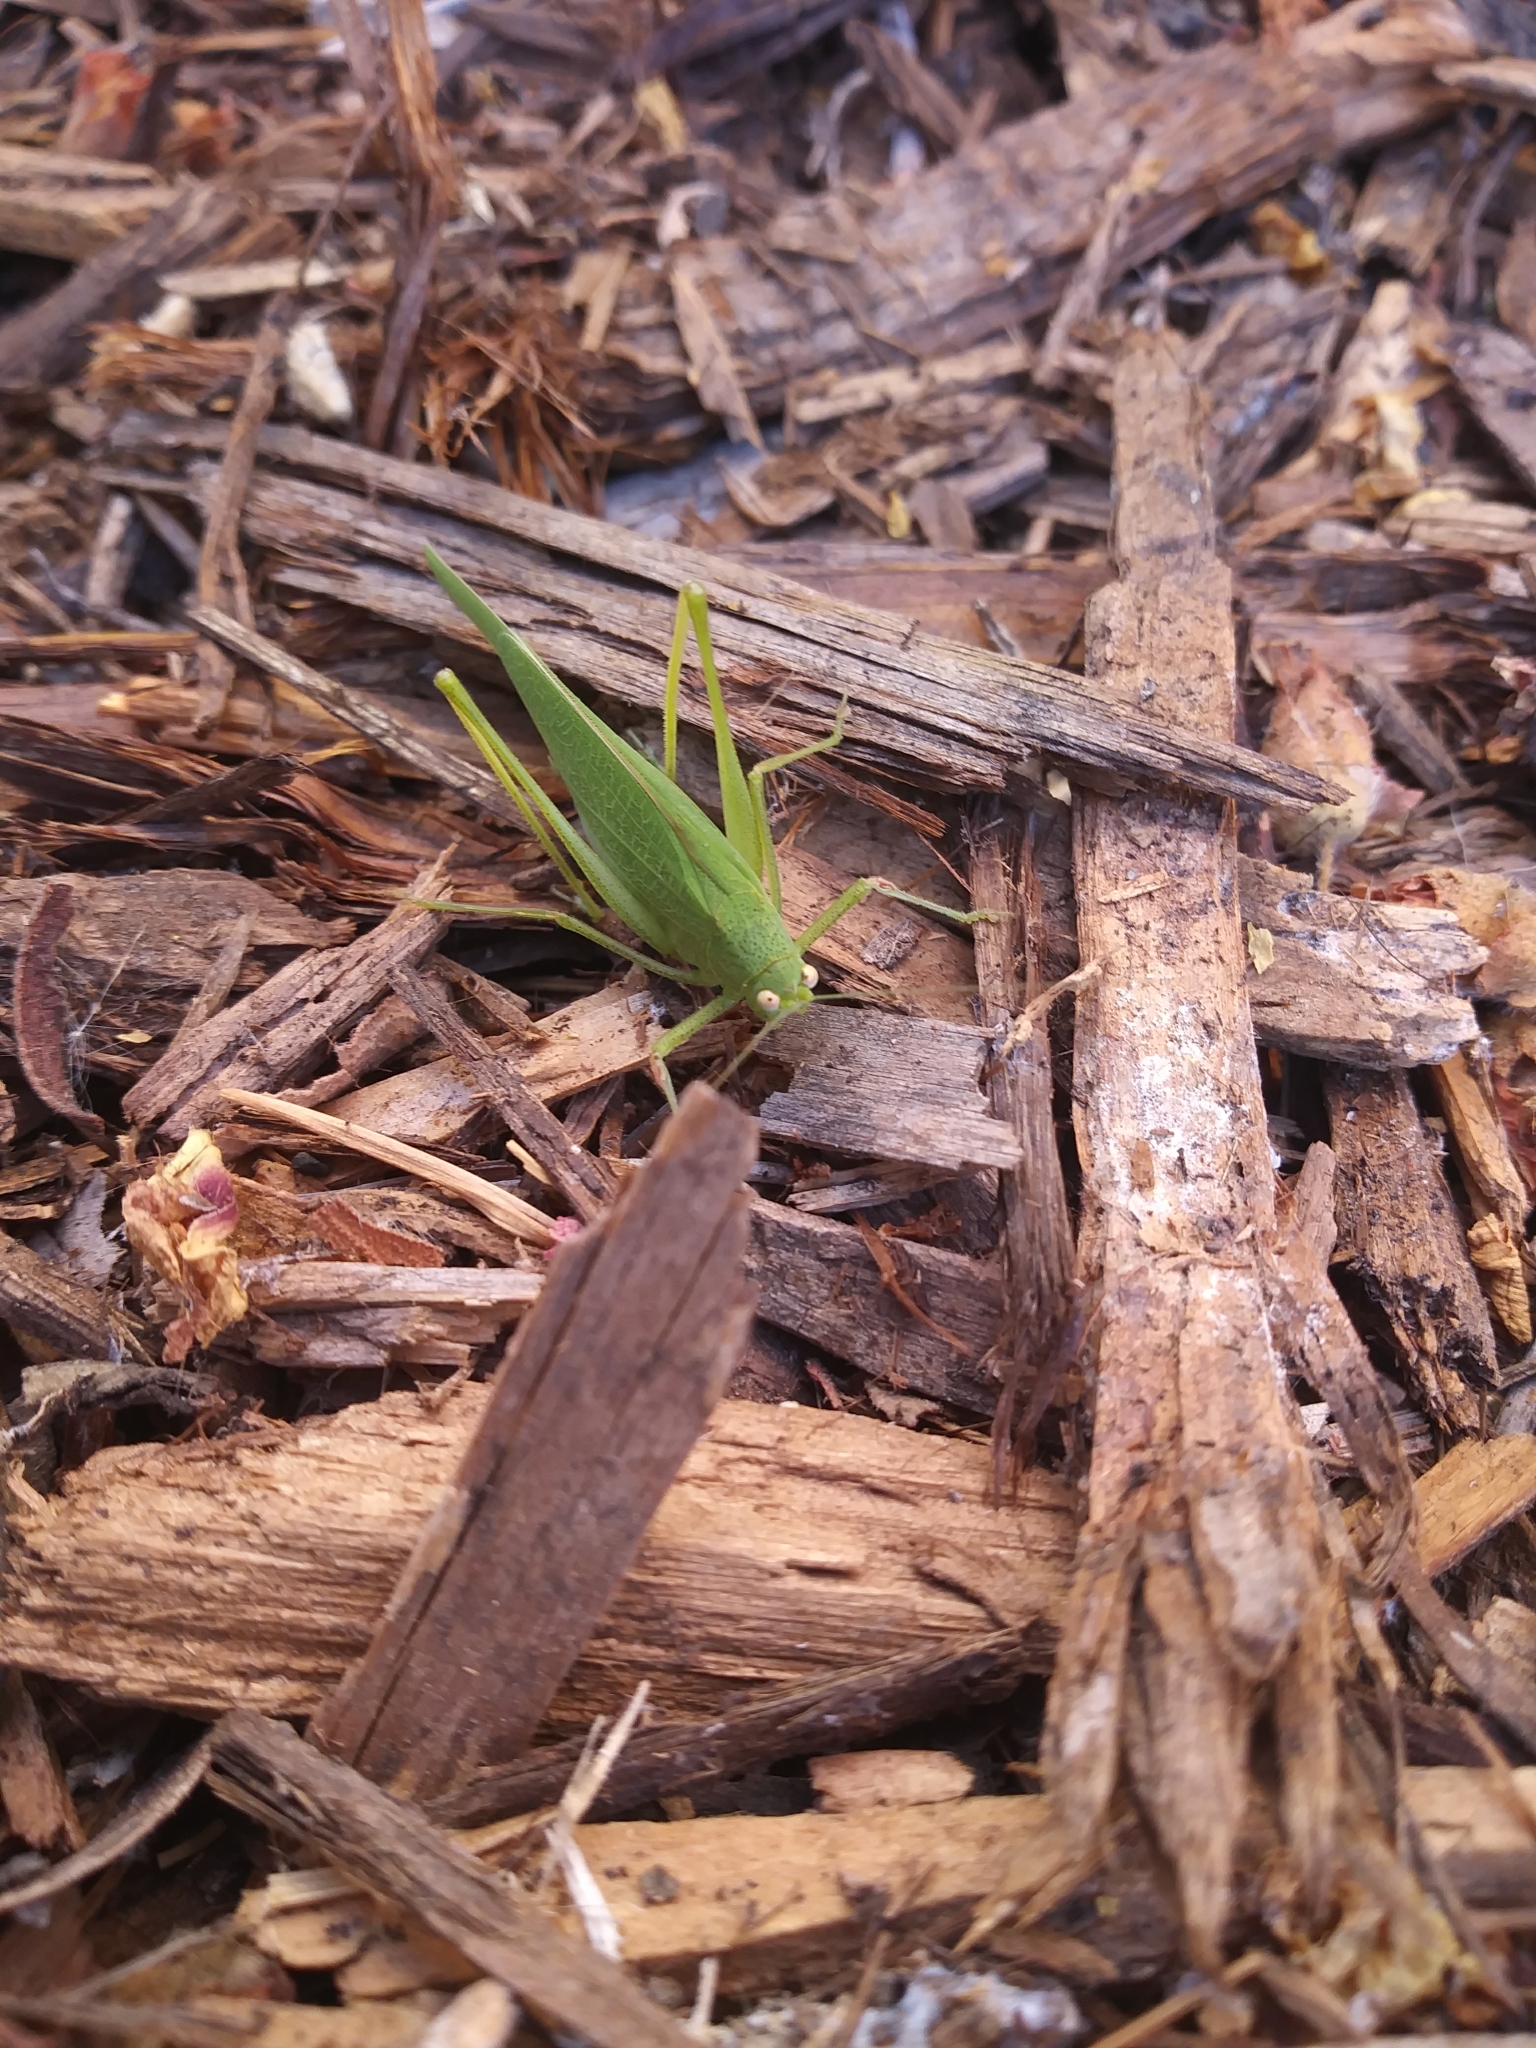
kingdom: Animalia
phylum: Arthropoda
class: Insecta
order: Orthoptera
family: Tettigoniidae
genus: Phaneroptera
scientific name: Phaneroptera nana
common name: Southern sickle bush-cricket
